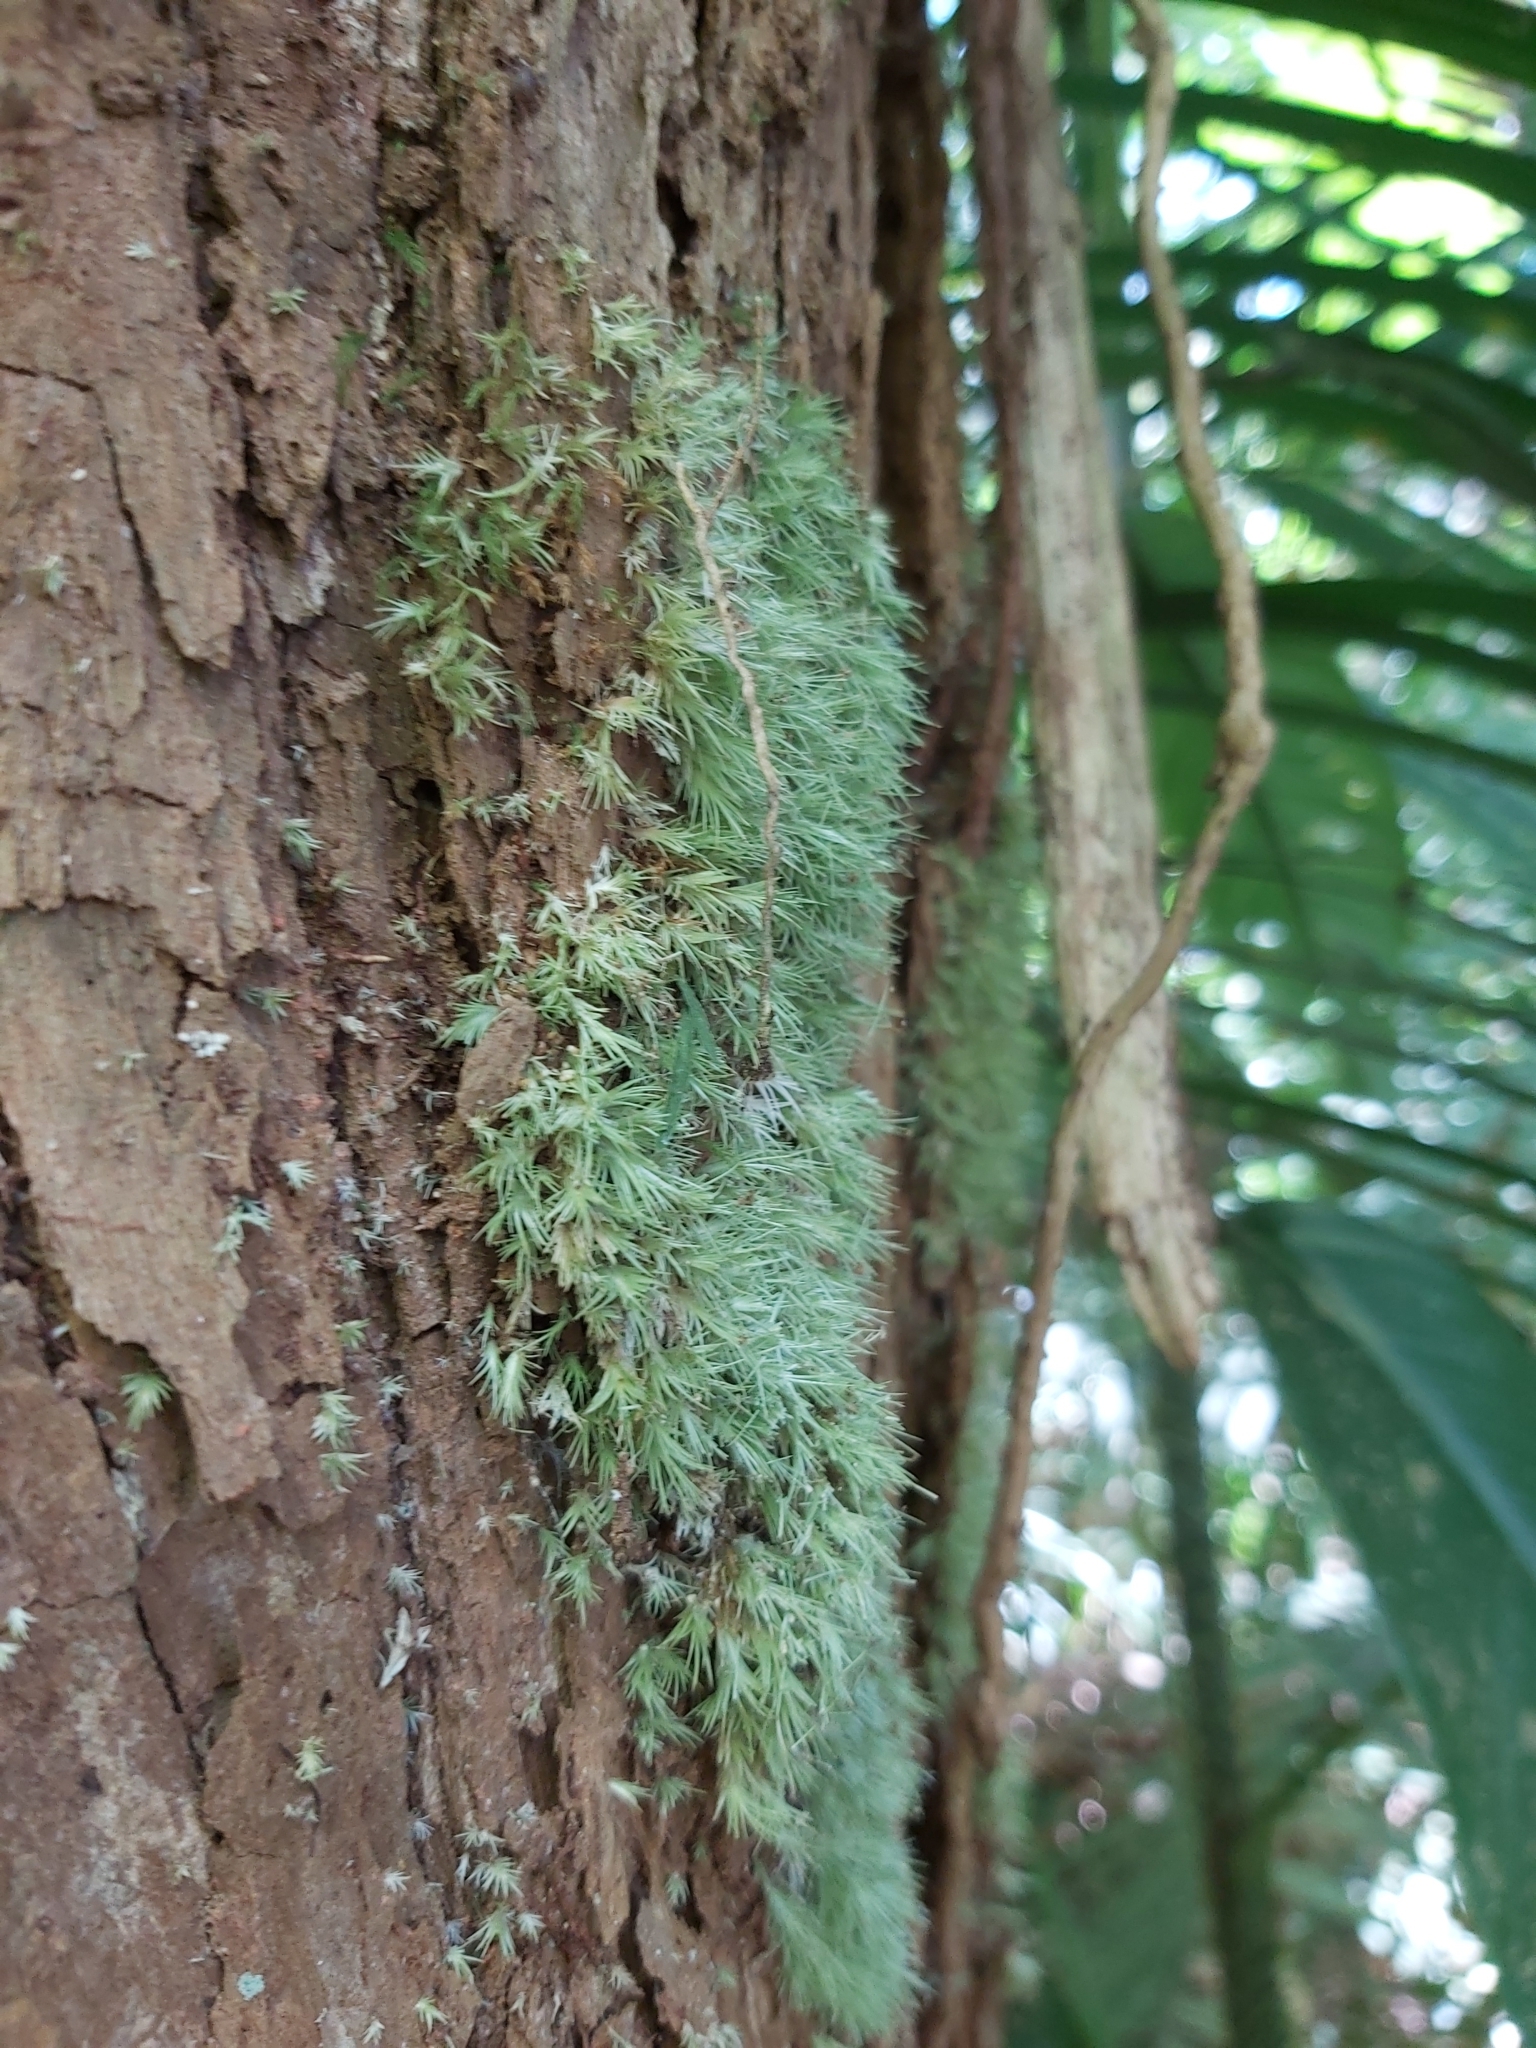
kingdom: Plantae
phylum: Bryophyta
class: Bryopsida
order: Dicranales
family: Calymperaceae
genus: Arthrocormus
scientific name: Arthrocormus schimperi
